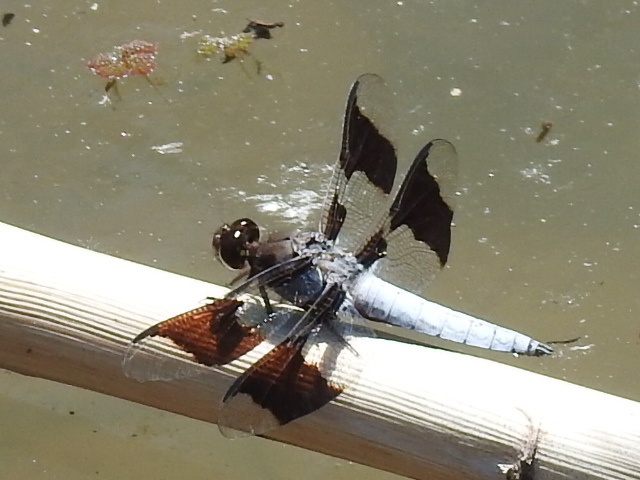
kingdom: Animalia
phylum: Arthropoda
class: Insecta
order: Odonata
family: Libellulidae
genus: Plathemis
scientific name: Plathemis lydia
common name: Common whitetail
